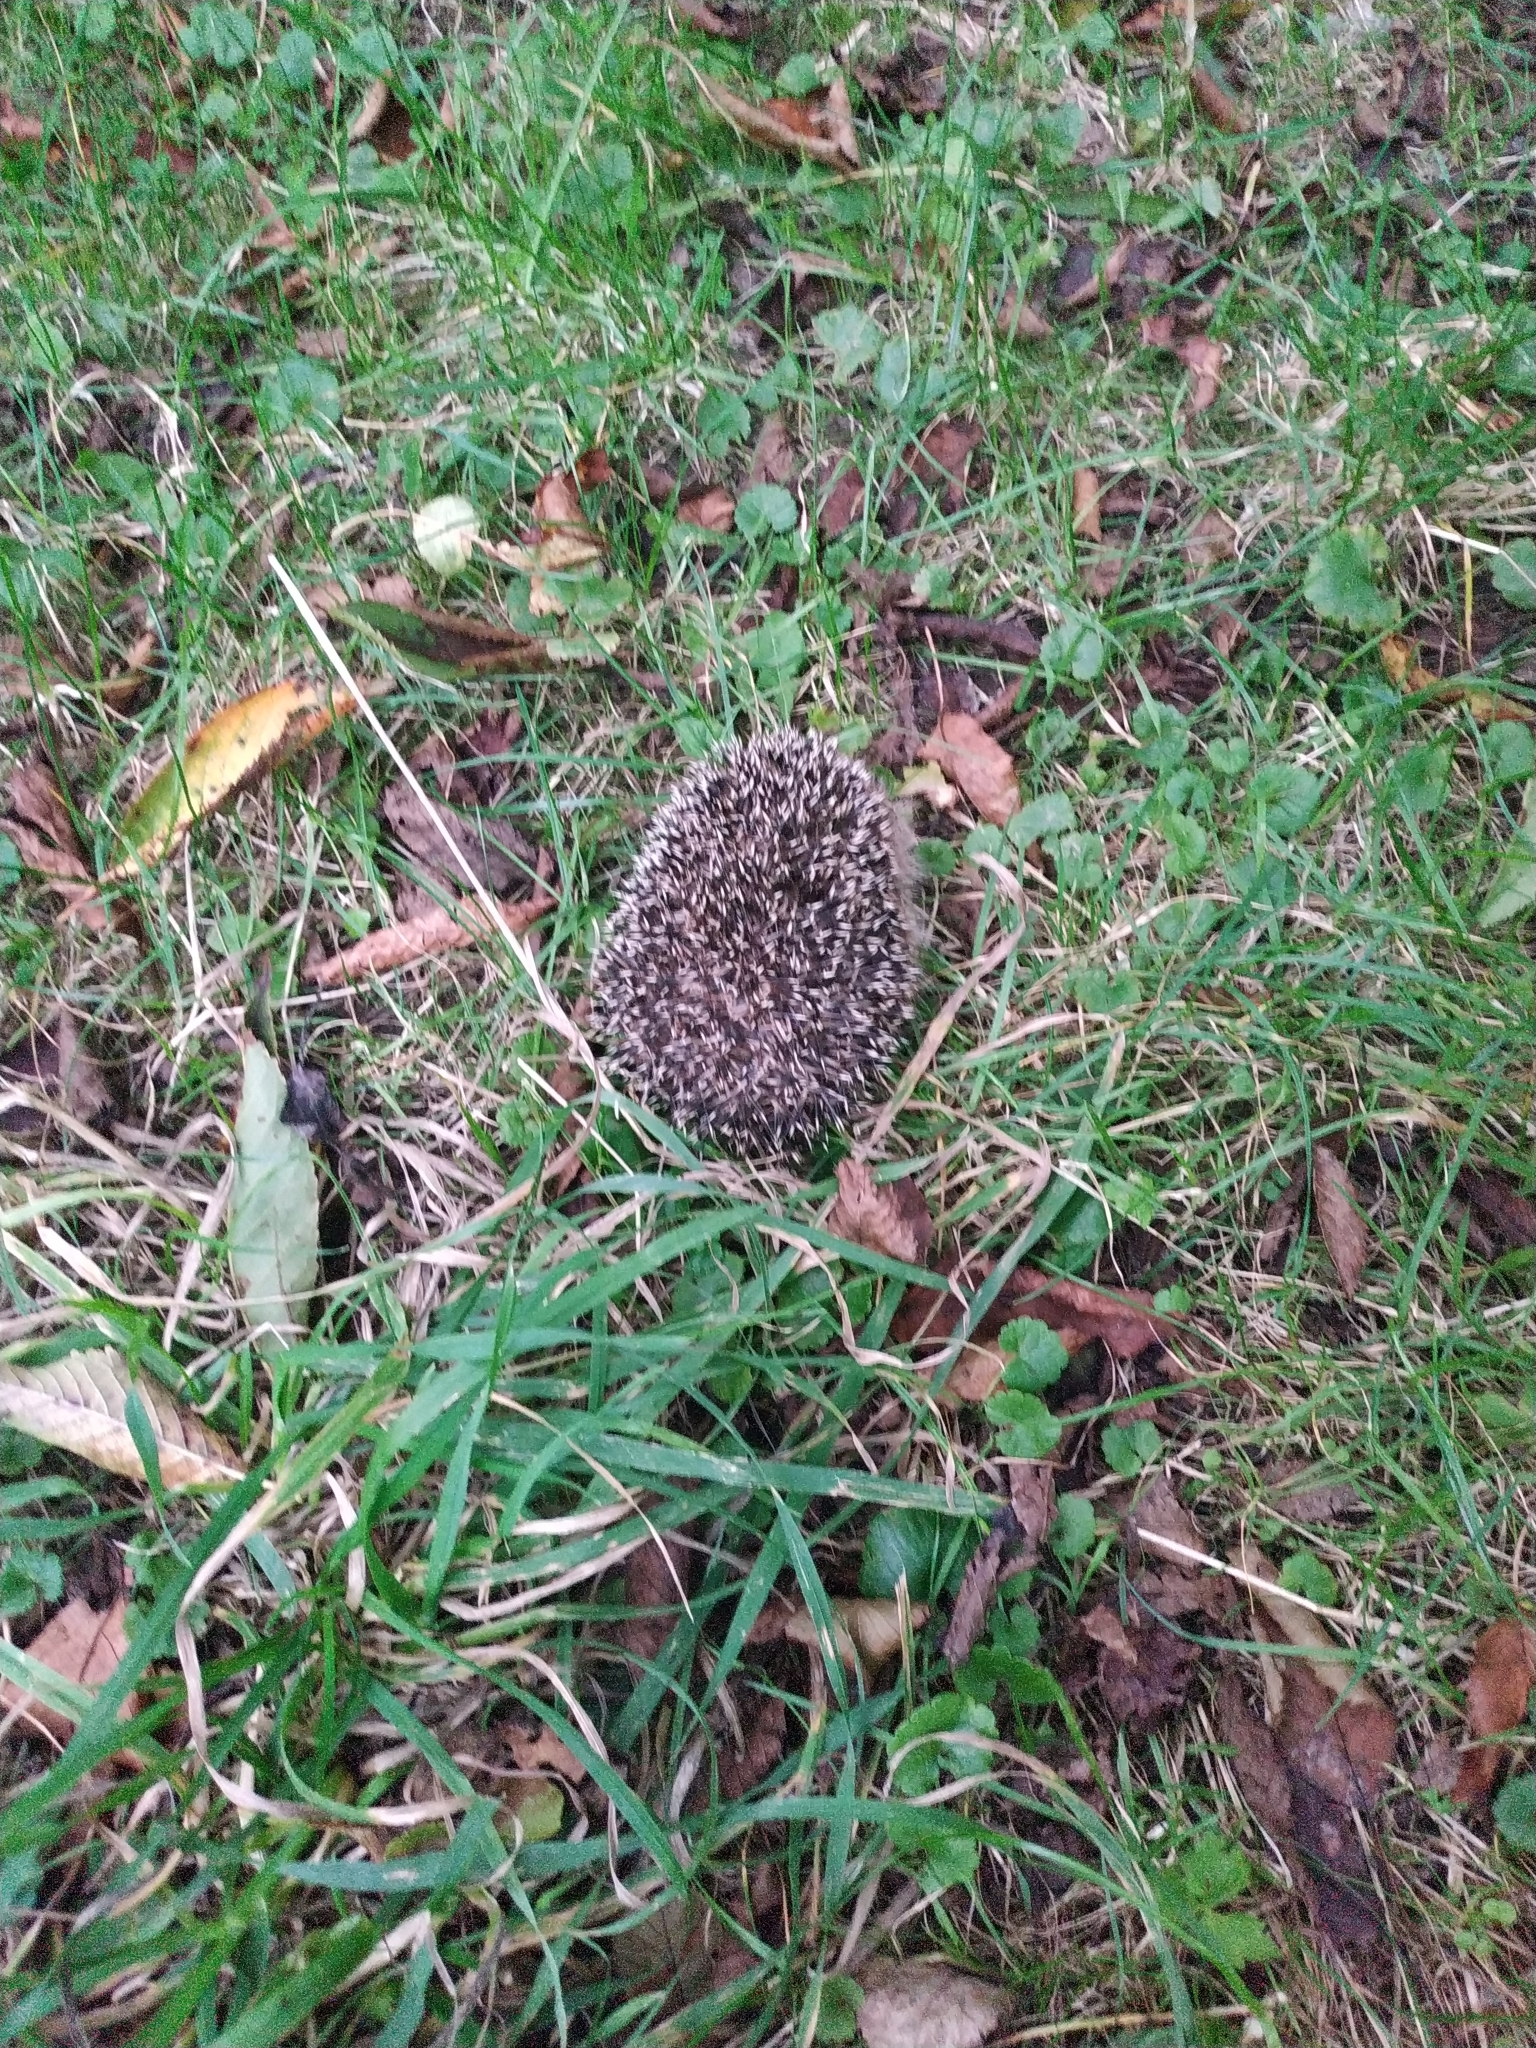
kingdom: Animalia
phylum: Chordata
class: Mammalia
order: Erinaceomorpha
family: Erinaceidae
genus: Erinaceus
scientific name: Erinaceus europaeus
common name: West european hedgehog
